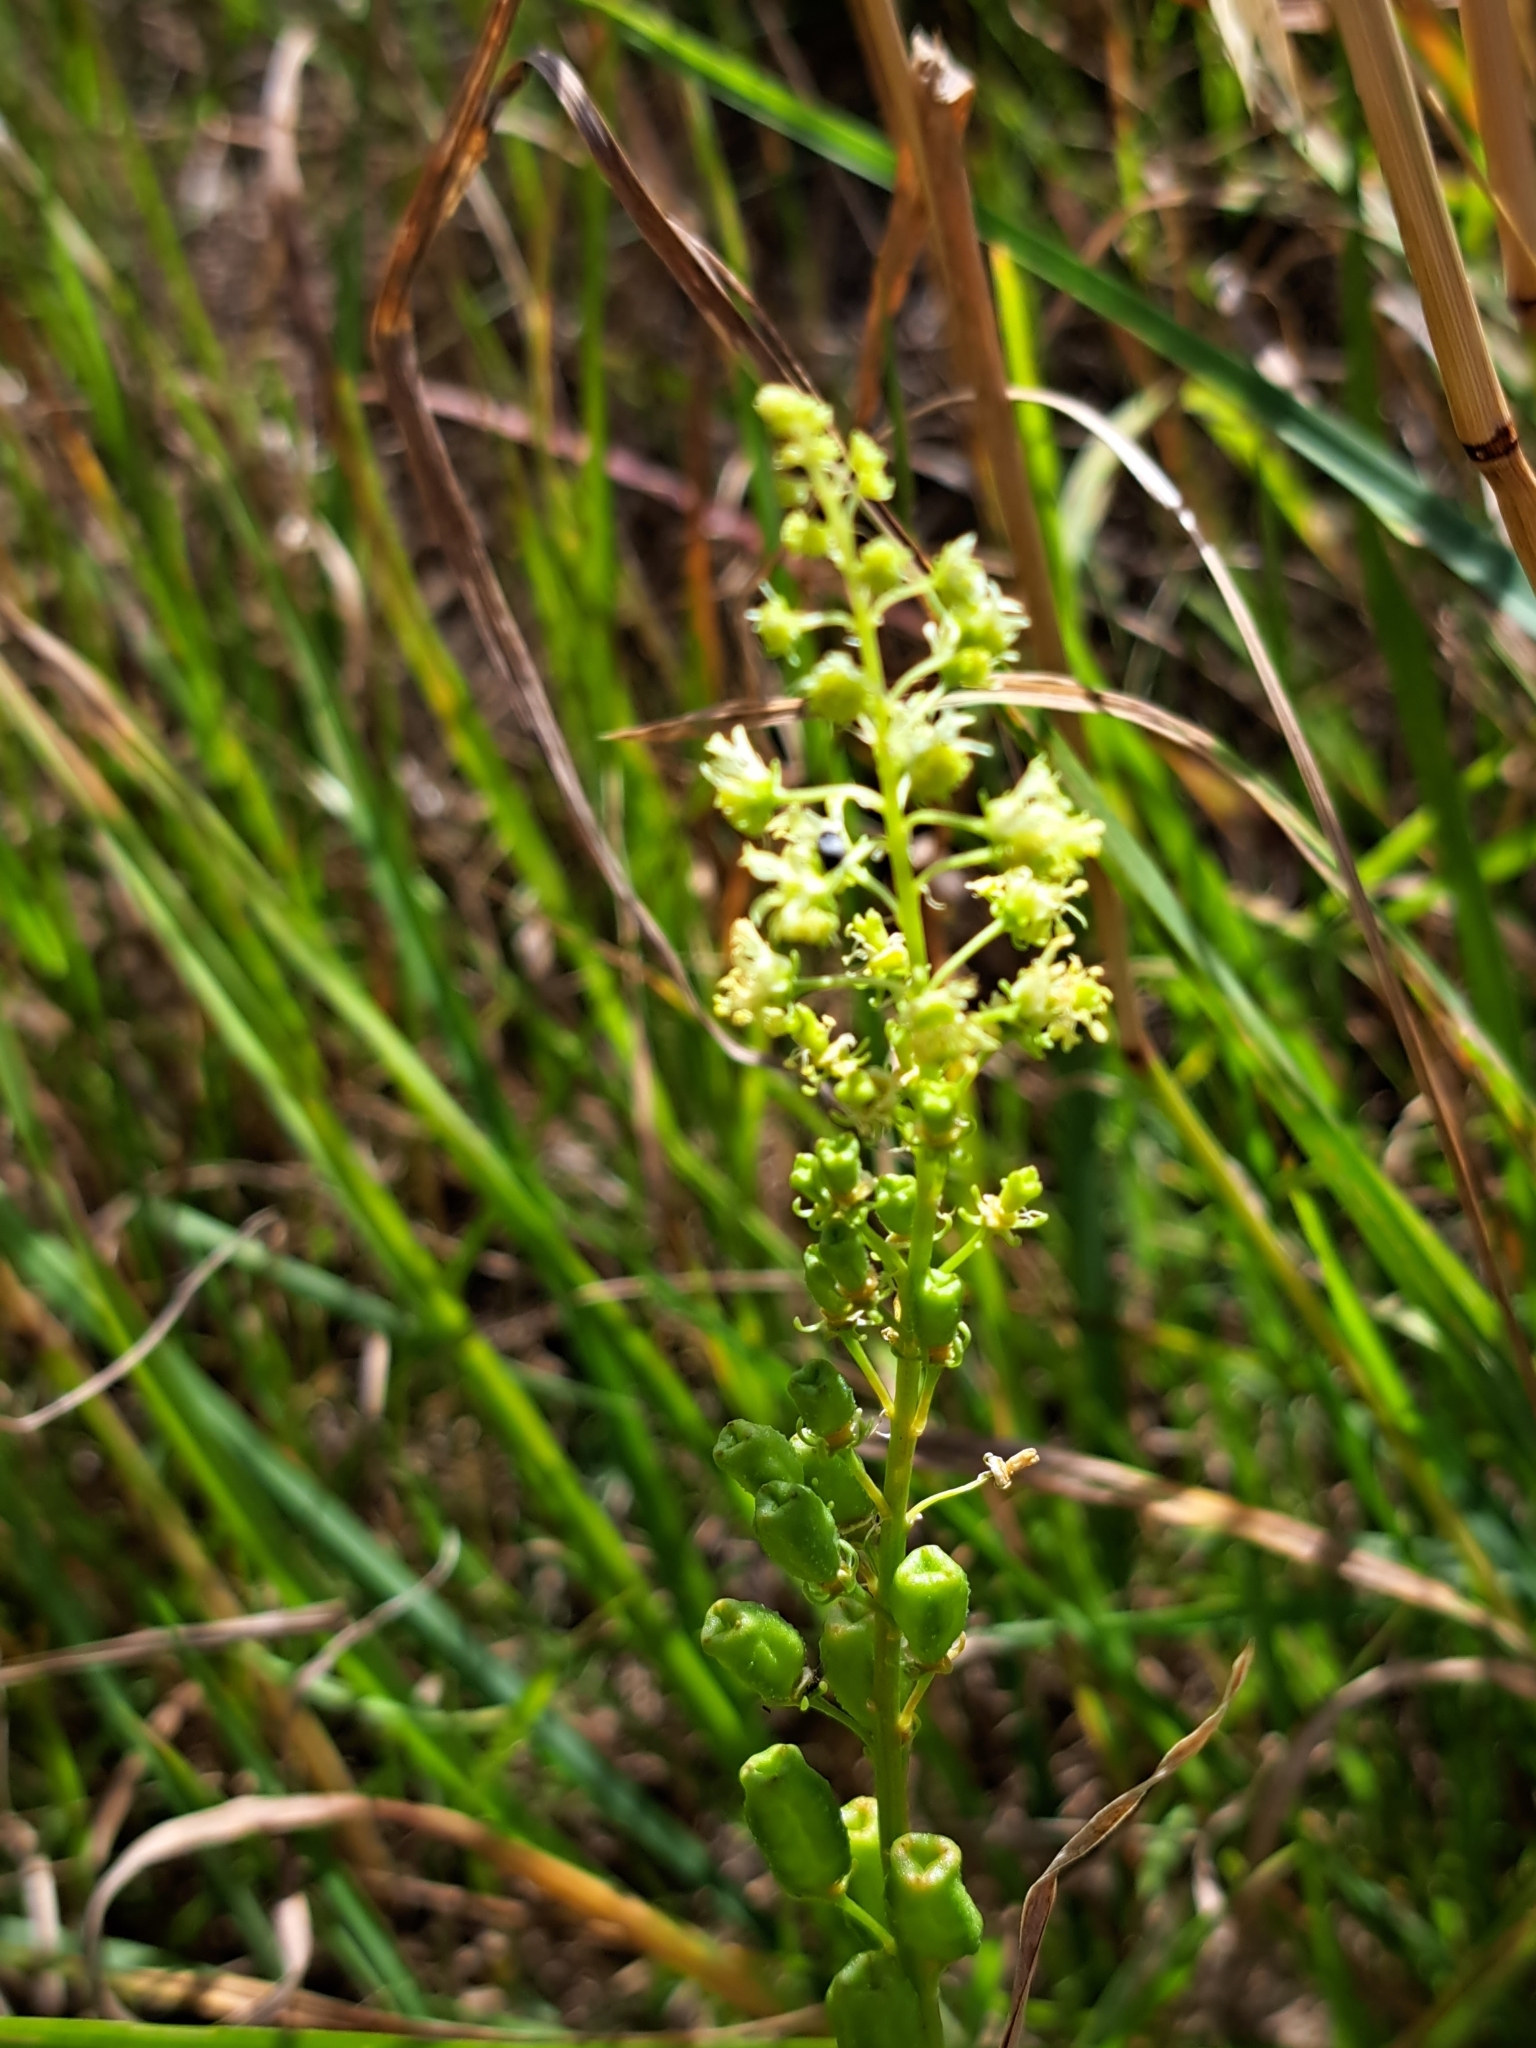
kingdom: Plantae
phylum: Tracheophyta
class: Magnoliopsida
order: Brassicales
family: Resedaceae
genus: Reseda
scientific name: Reseda lutea
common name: Wild mignonette
